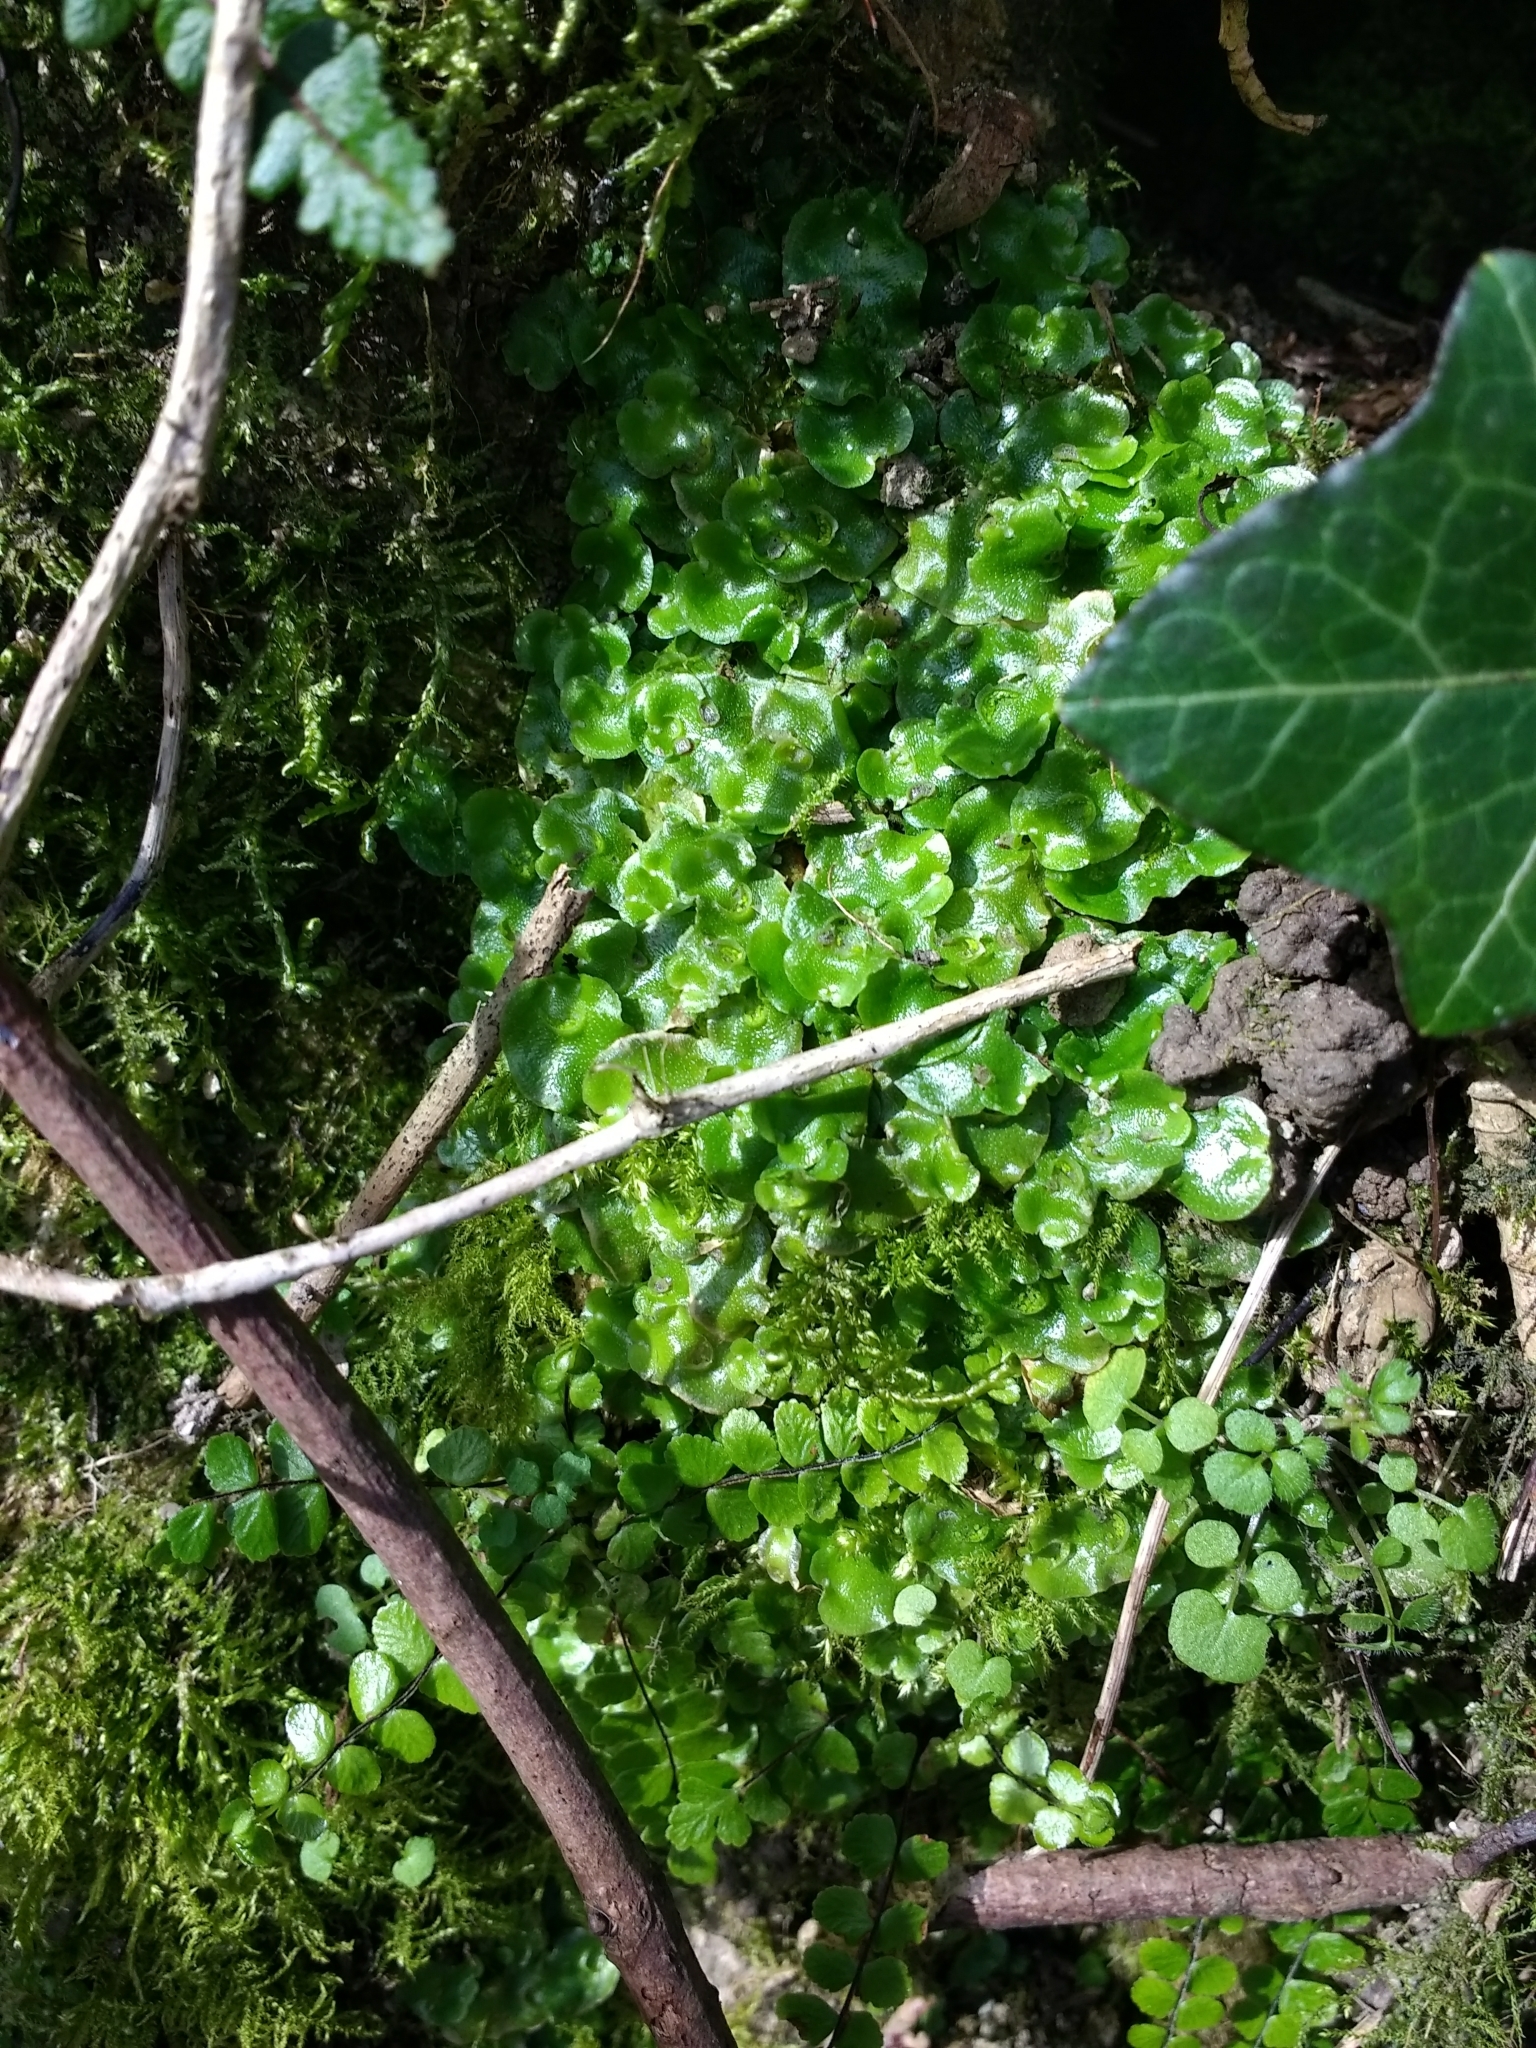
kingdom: Plantae
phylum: Marchantiophyta
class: Marchantiopsida
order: Lunulariales
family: Lunulariaceae
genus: Lunularia
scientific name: Lunularia cruciata
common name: Crescent-cup liverwort
